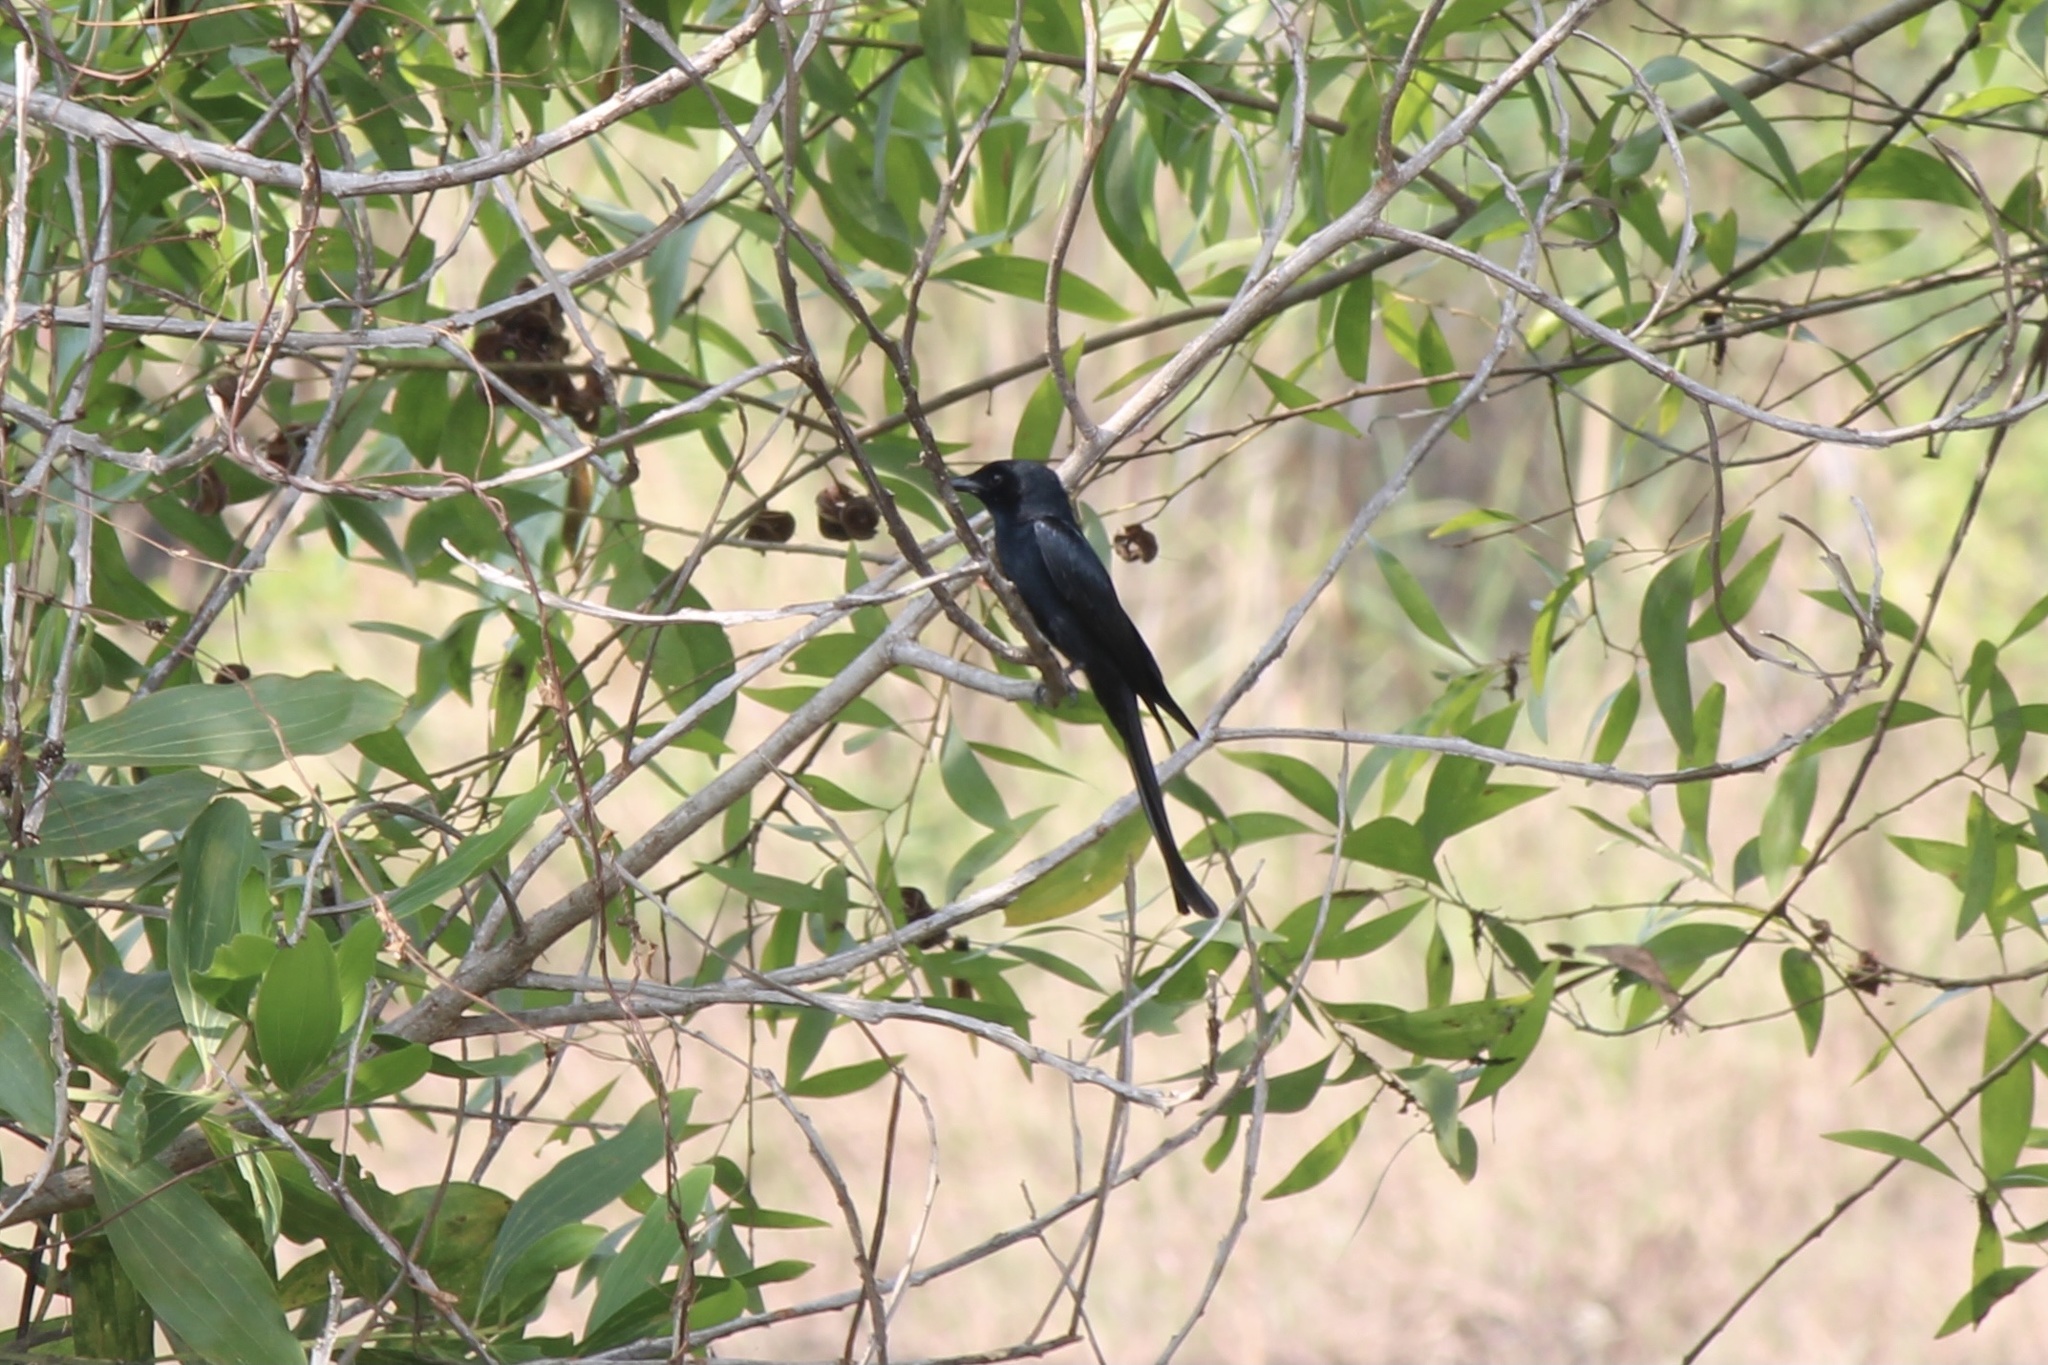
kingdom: Animalia
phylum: Chordata
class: Aves
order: Passeriformes
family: Dicruridae
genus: Dicrurus
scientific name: Dicrurus macrocercus
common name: Black drongo
